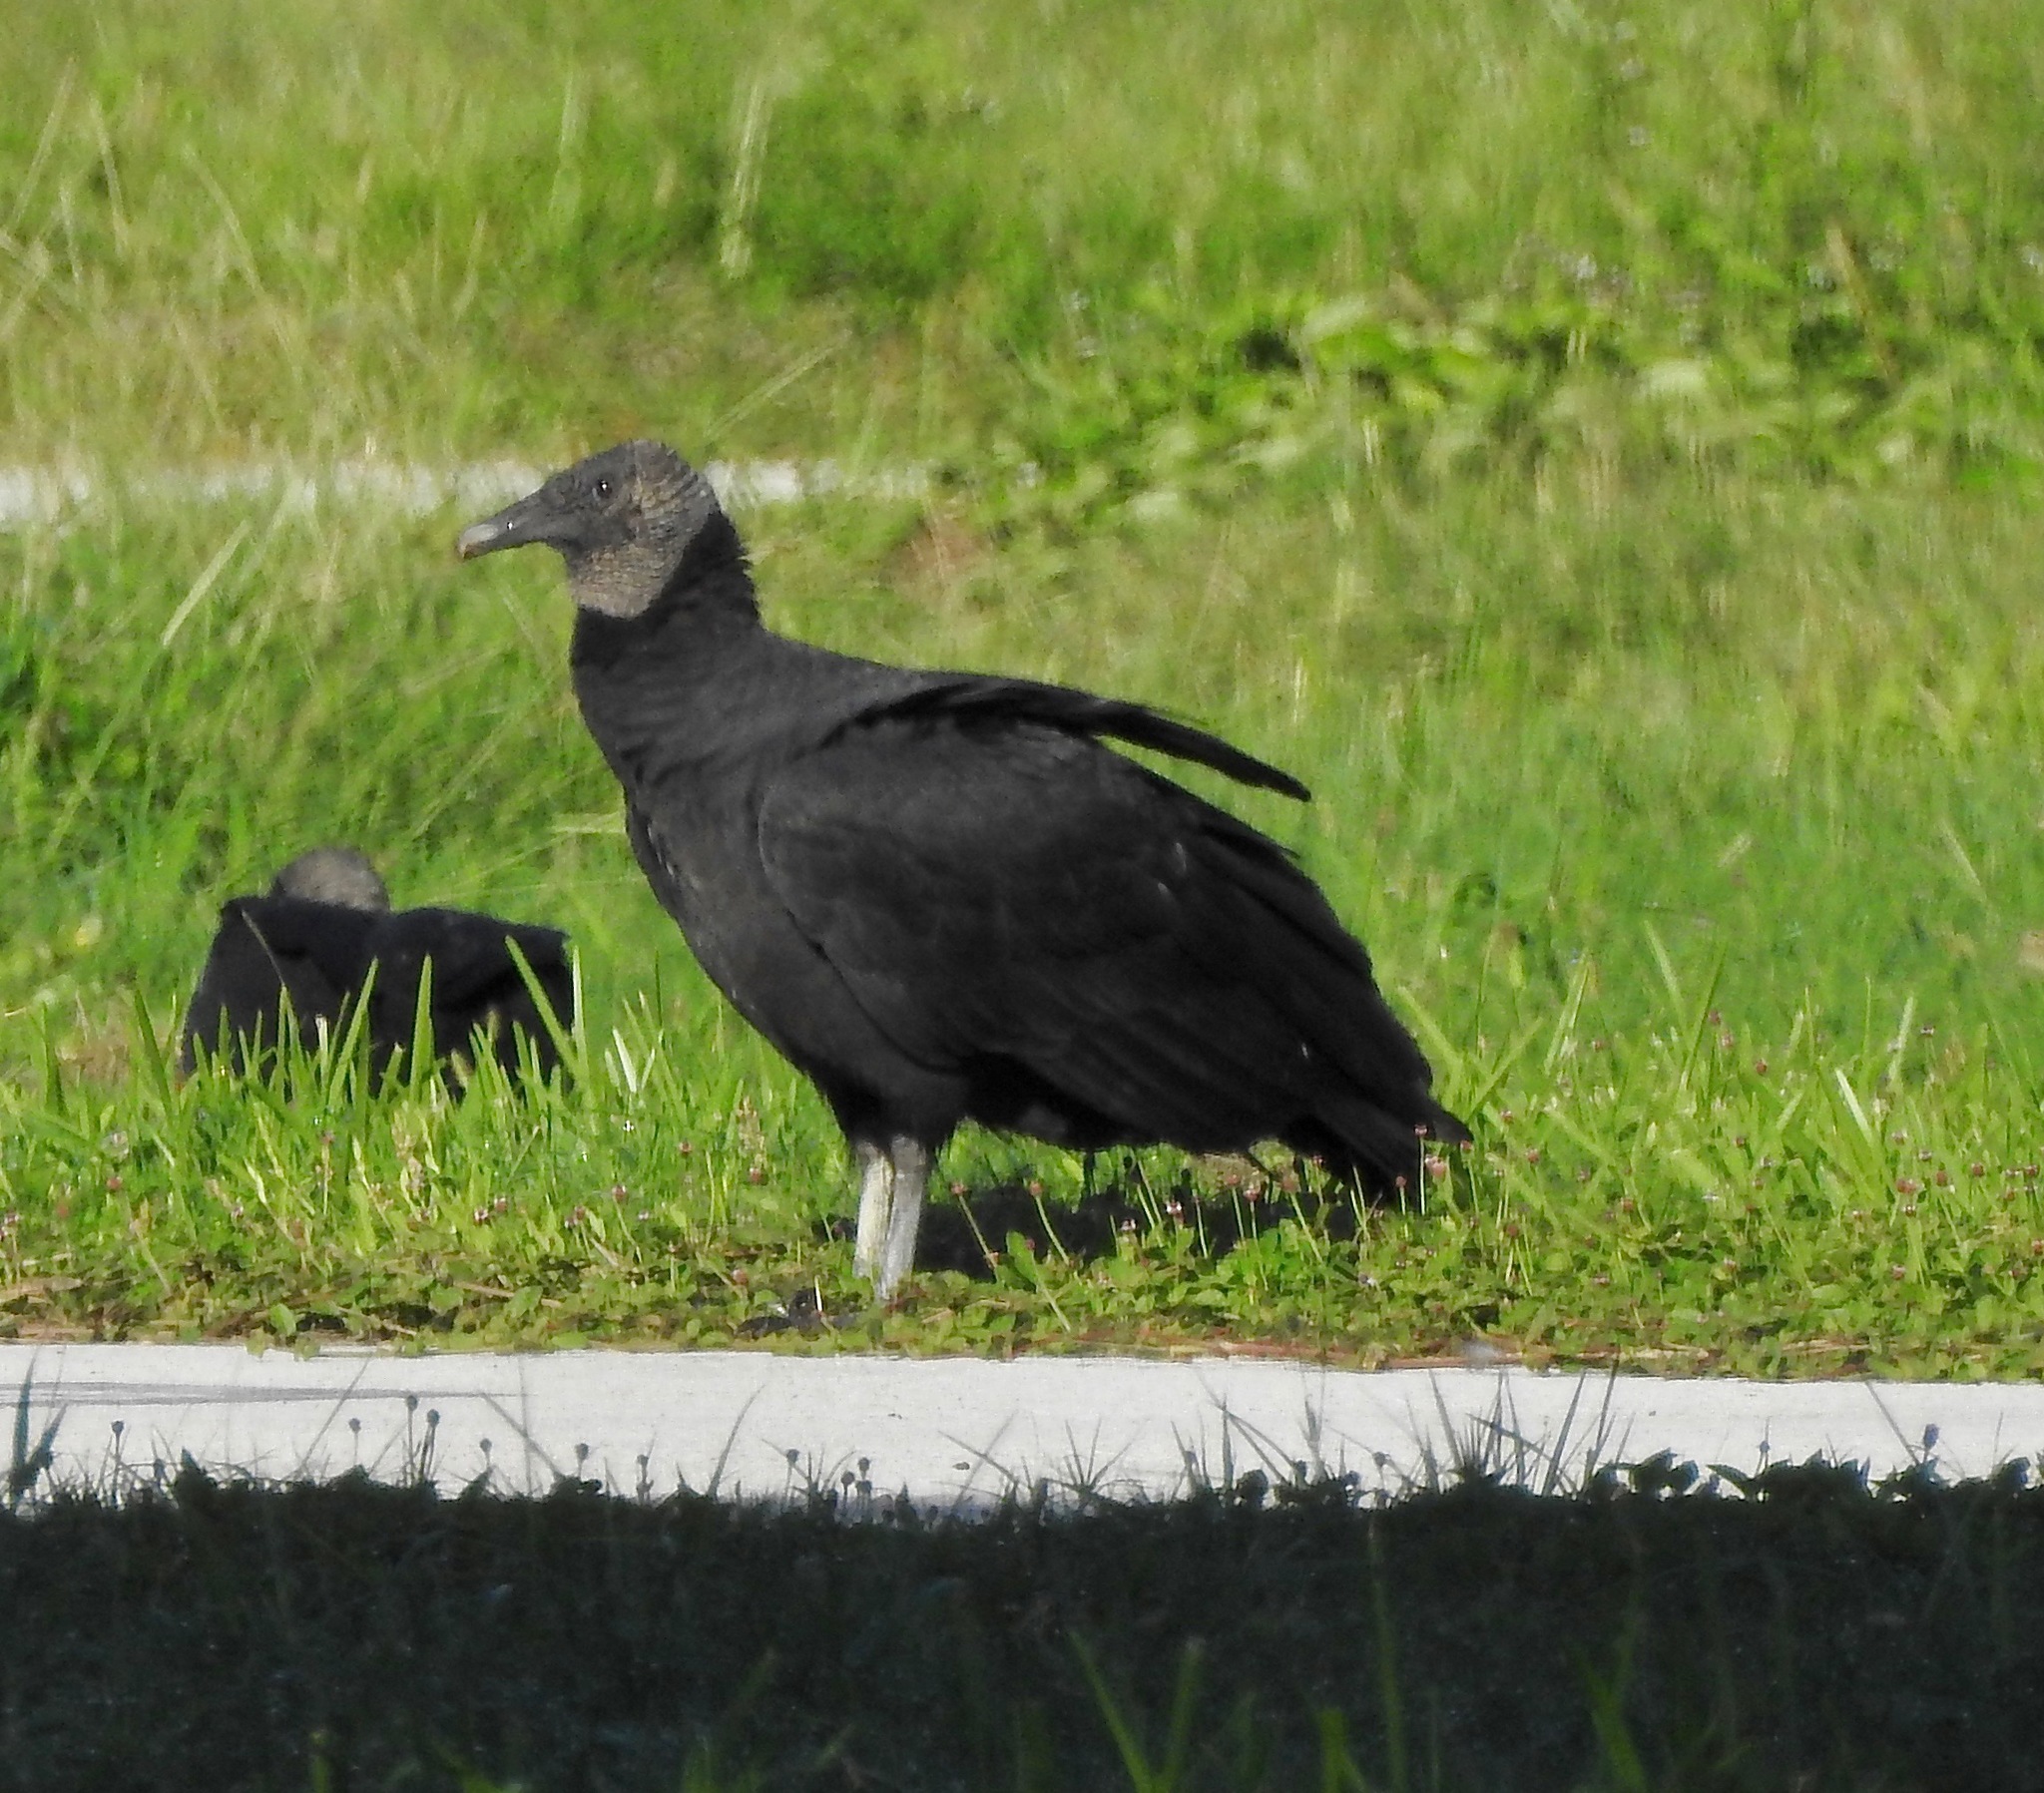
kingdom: Animalia
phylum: Chordata
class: Aves
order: Accipitriformes
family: Cathartidae
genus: Coragyps
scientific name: Coragyps atratus
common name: Black vulture
